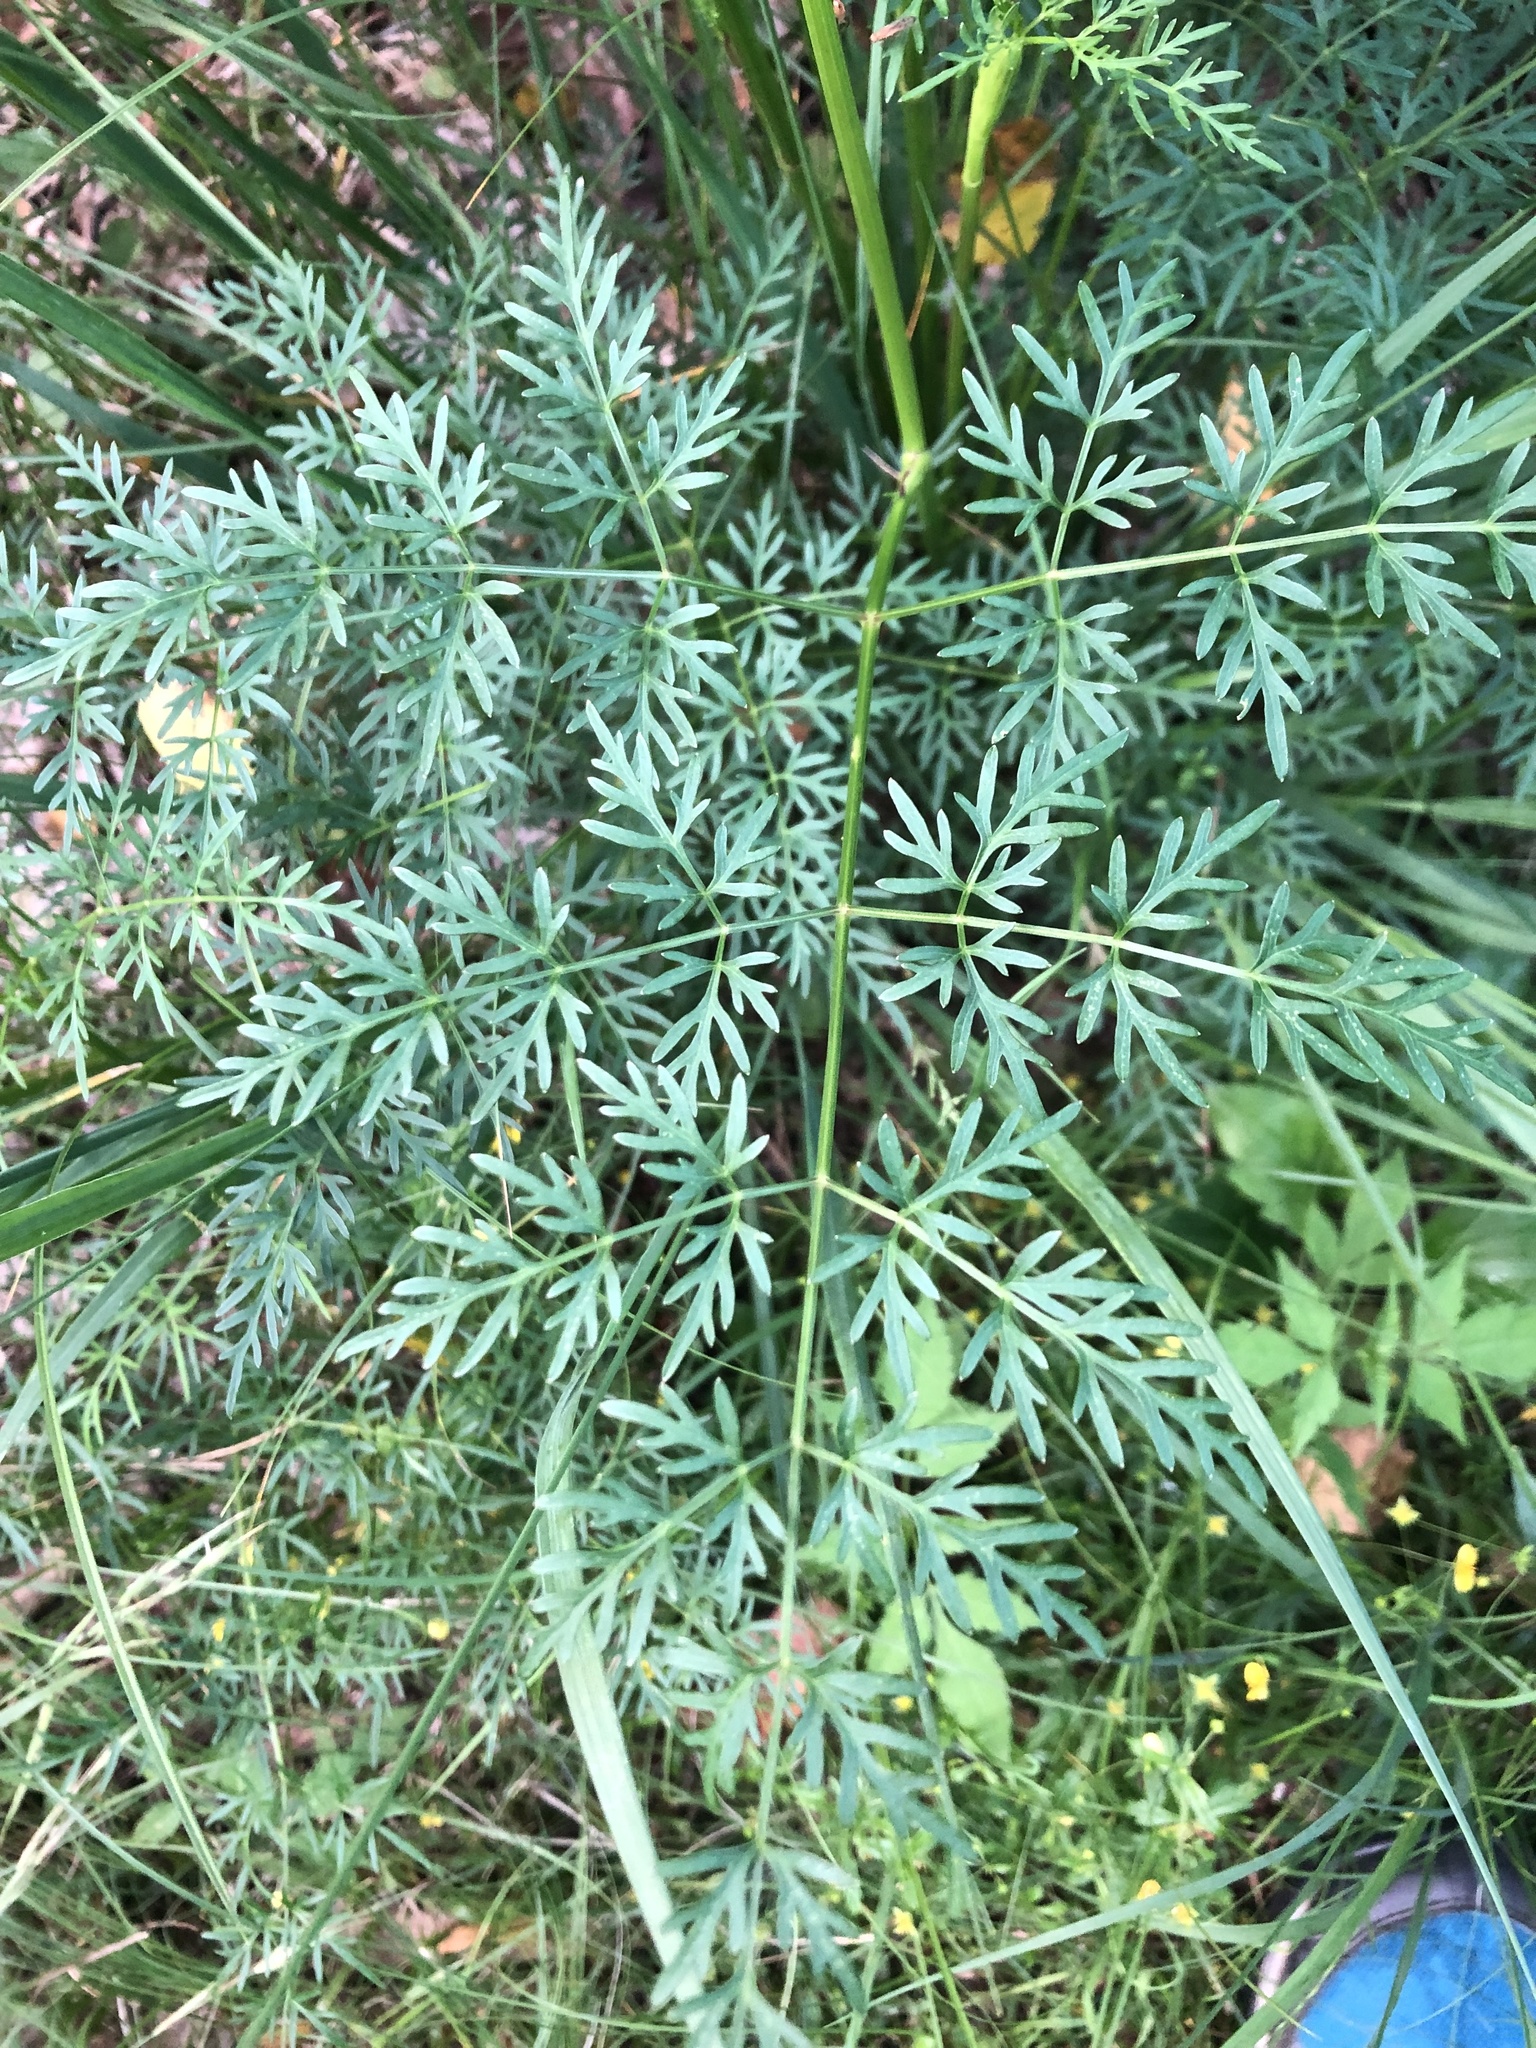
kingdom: Plantae
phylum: Tracheophyta
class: Magnoliopsida
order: Apiales
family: Apiaceae
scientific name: Apiaceae
